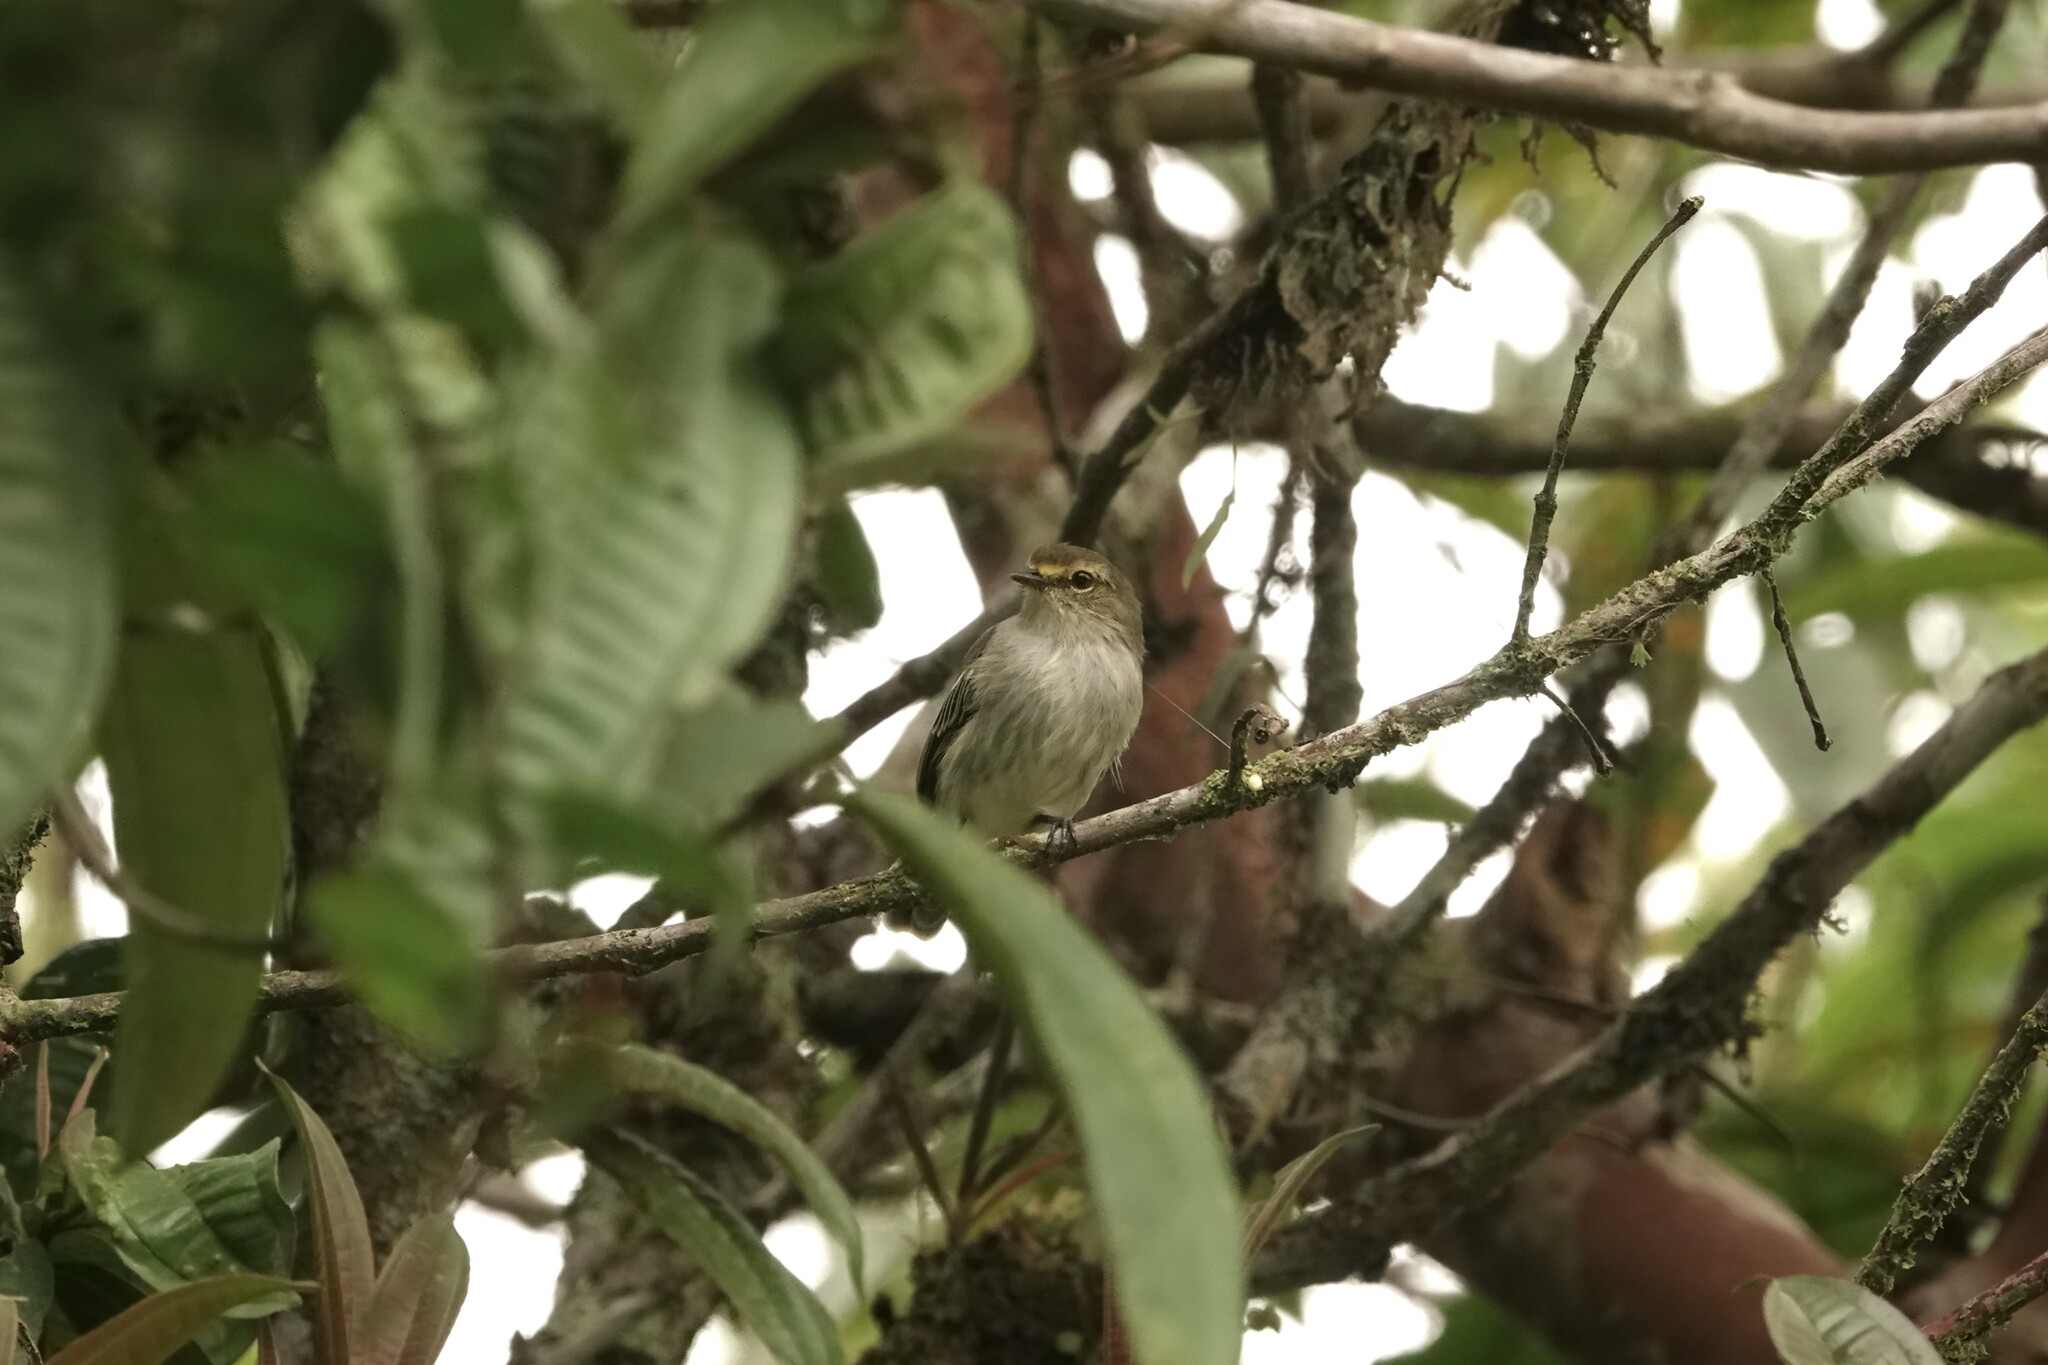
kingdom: Animalia
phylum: Chordata
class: Aves
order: Passeriformes
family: Tyrannidae
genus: Zimmerius
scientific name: Zimmerius chrysops
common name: Golden-faced tyrannulet
